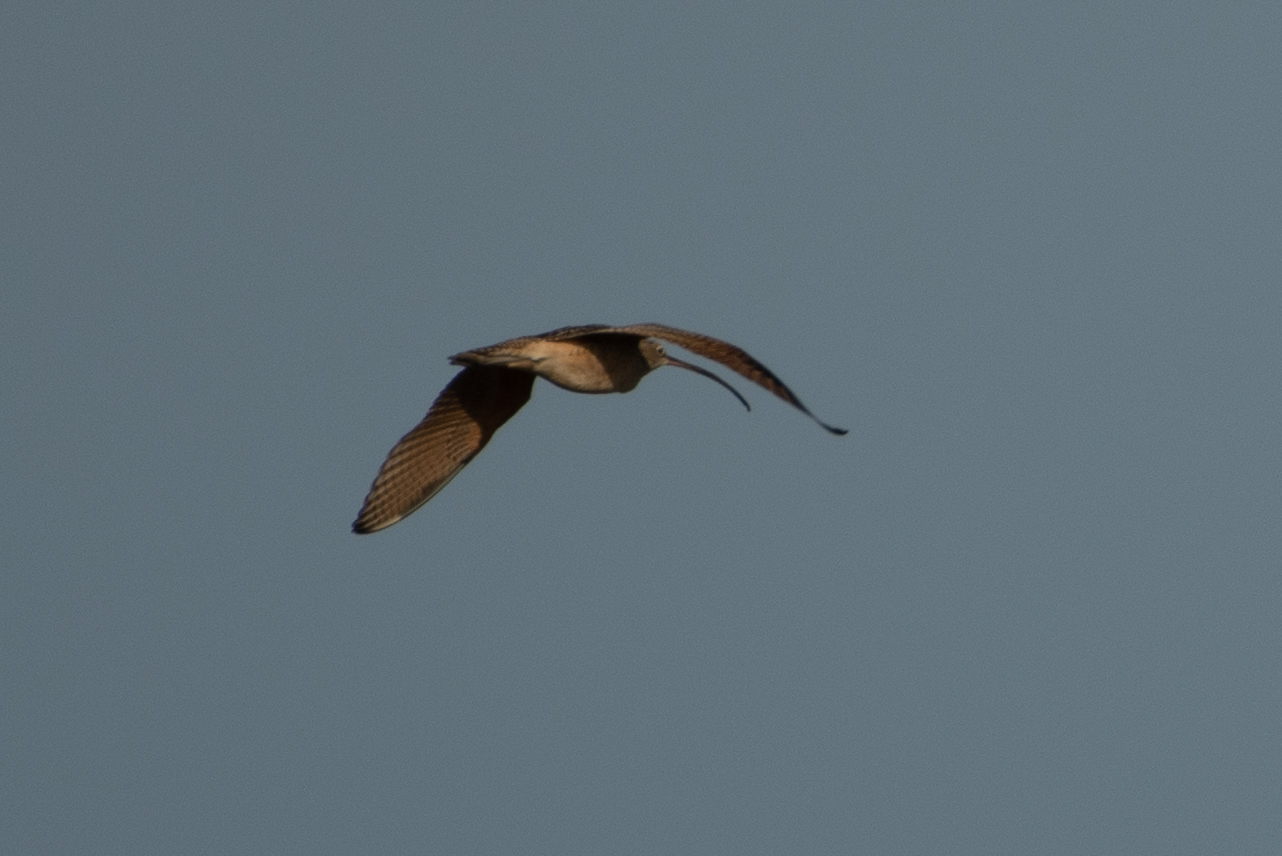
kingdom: Animalia
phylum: Chordata
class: Aves
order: Charadriiformes
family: Scolopacidae
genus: Numenius
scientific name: Numenius americanus
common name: Long-billed curlew
